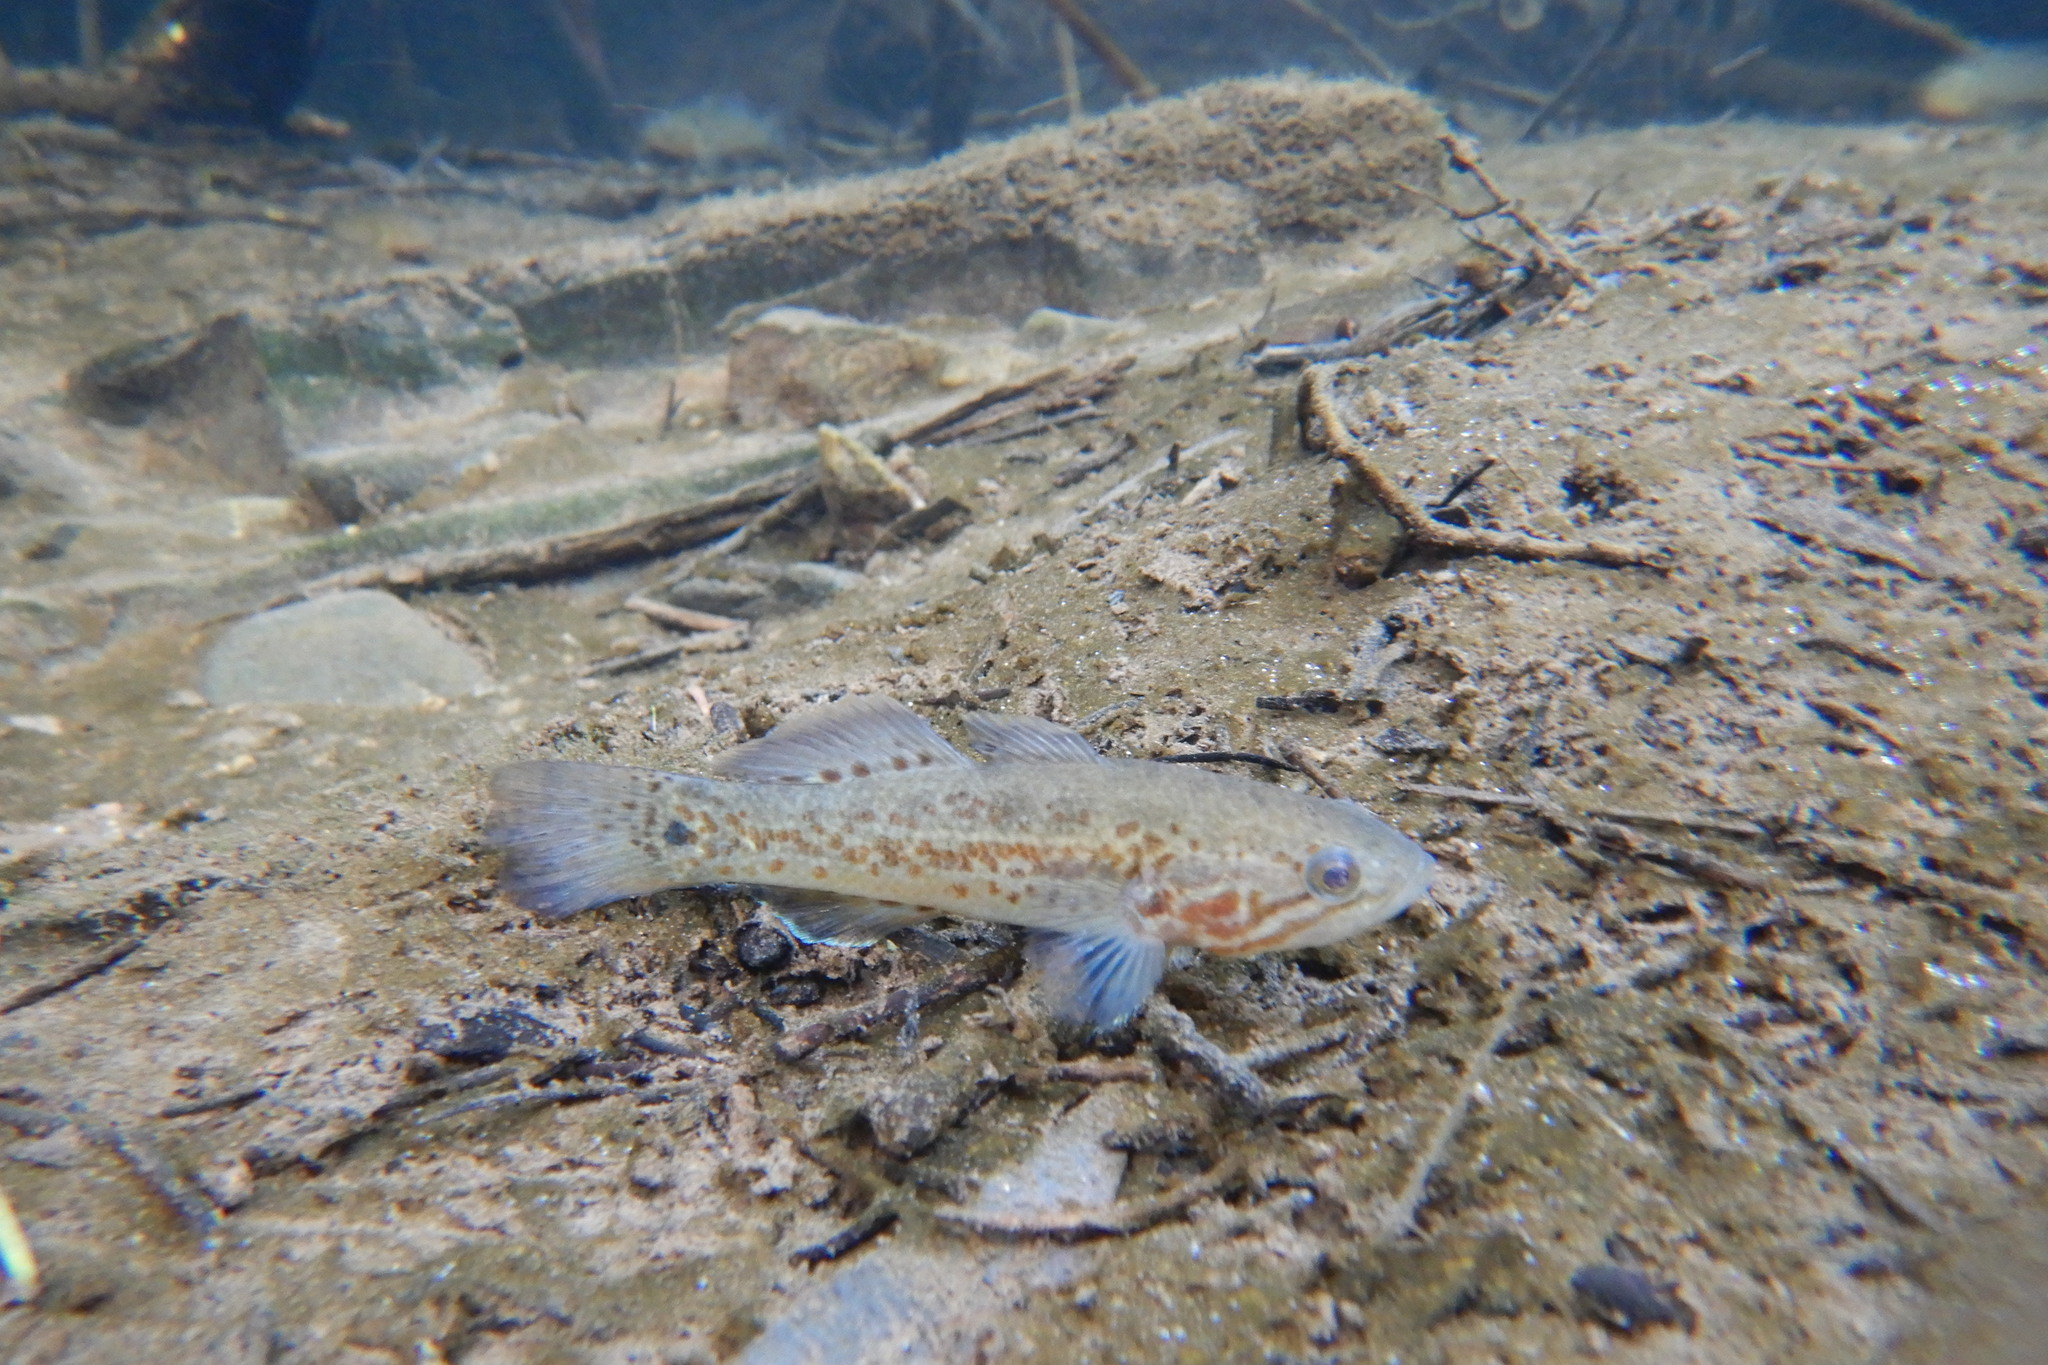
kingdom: Animalia
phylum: Chordata
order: Perciformes
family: Eleotridae
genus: Mogurnda
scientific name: Mogurnda clivicola
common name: Flinders ranges mogurnda
